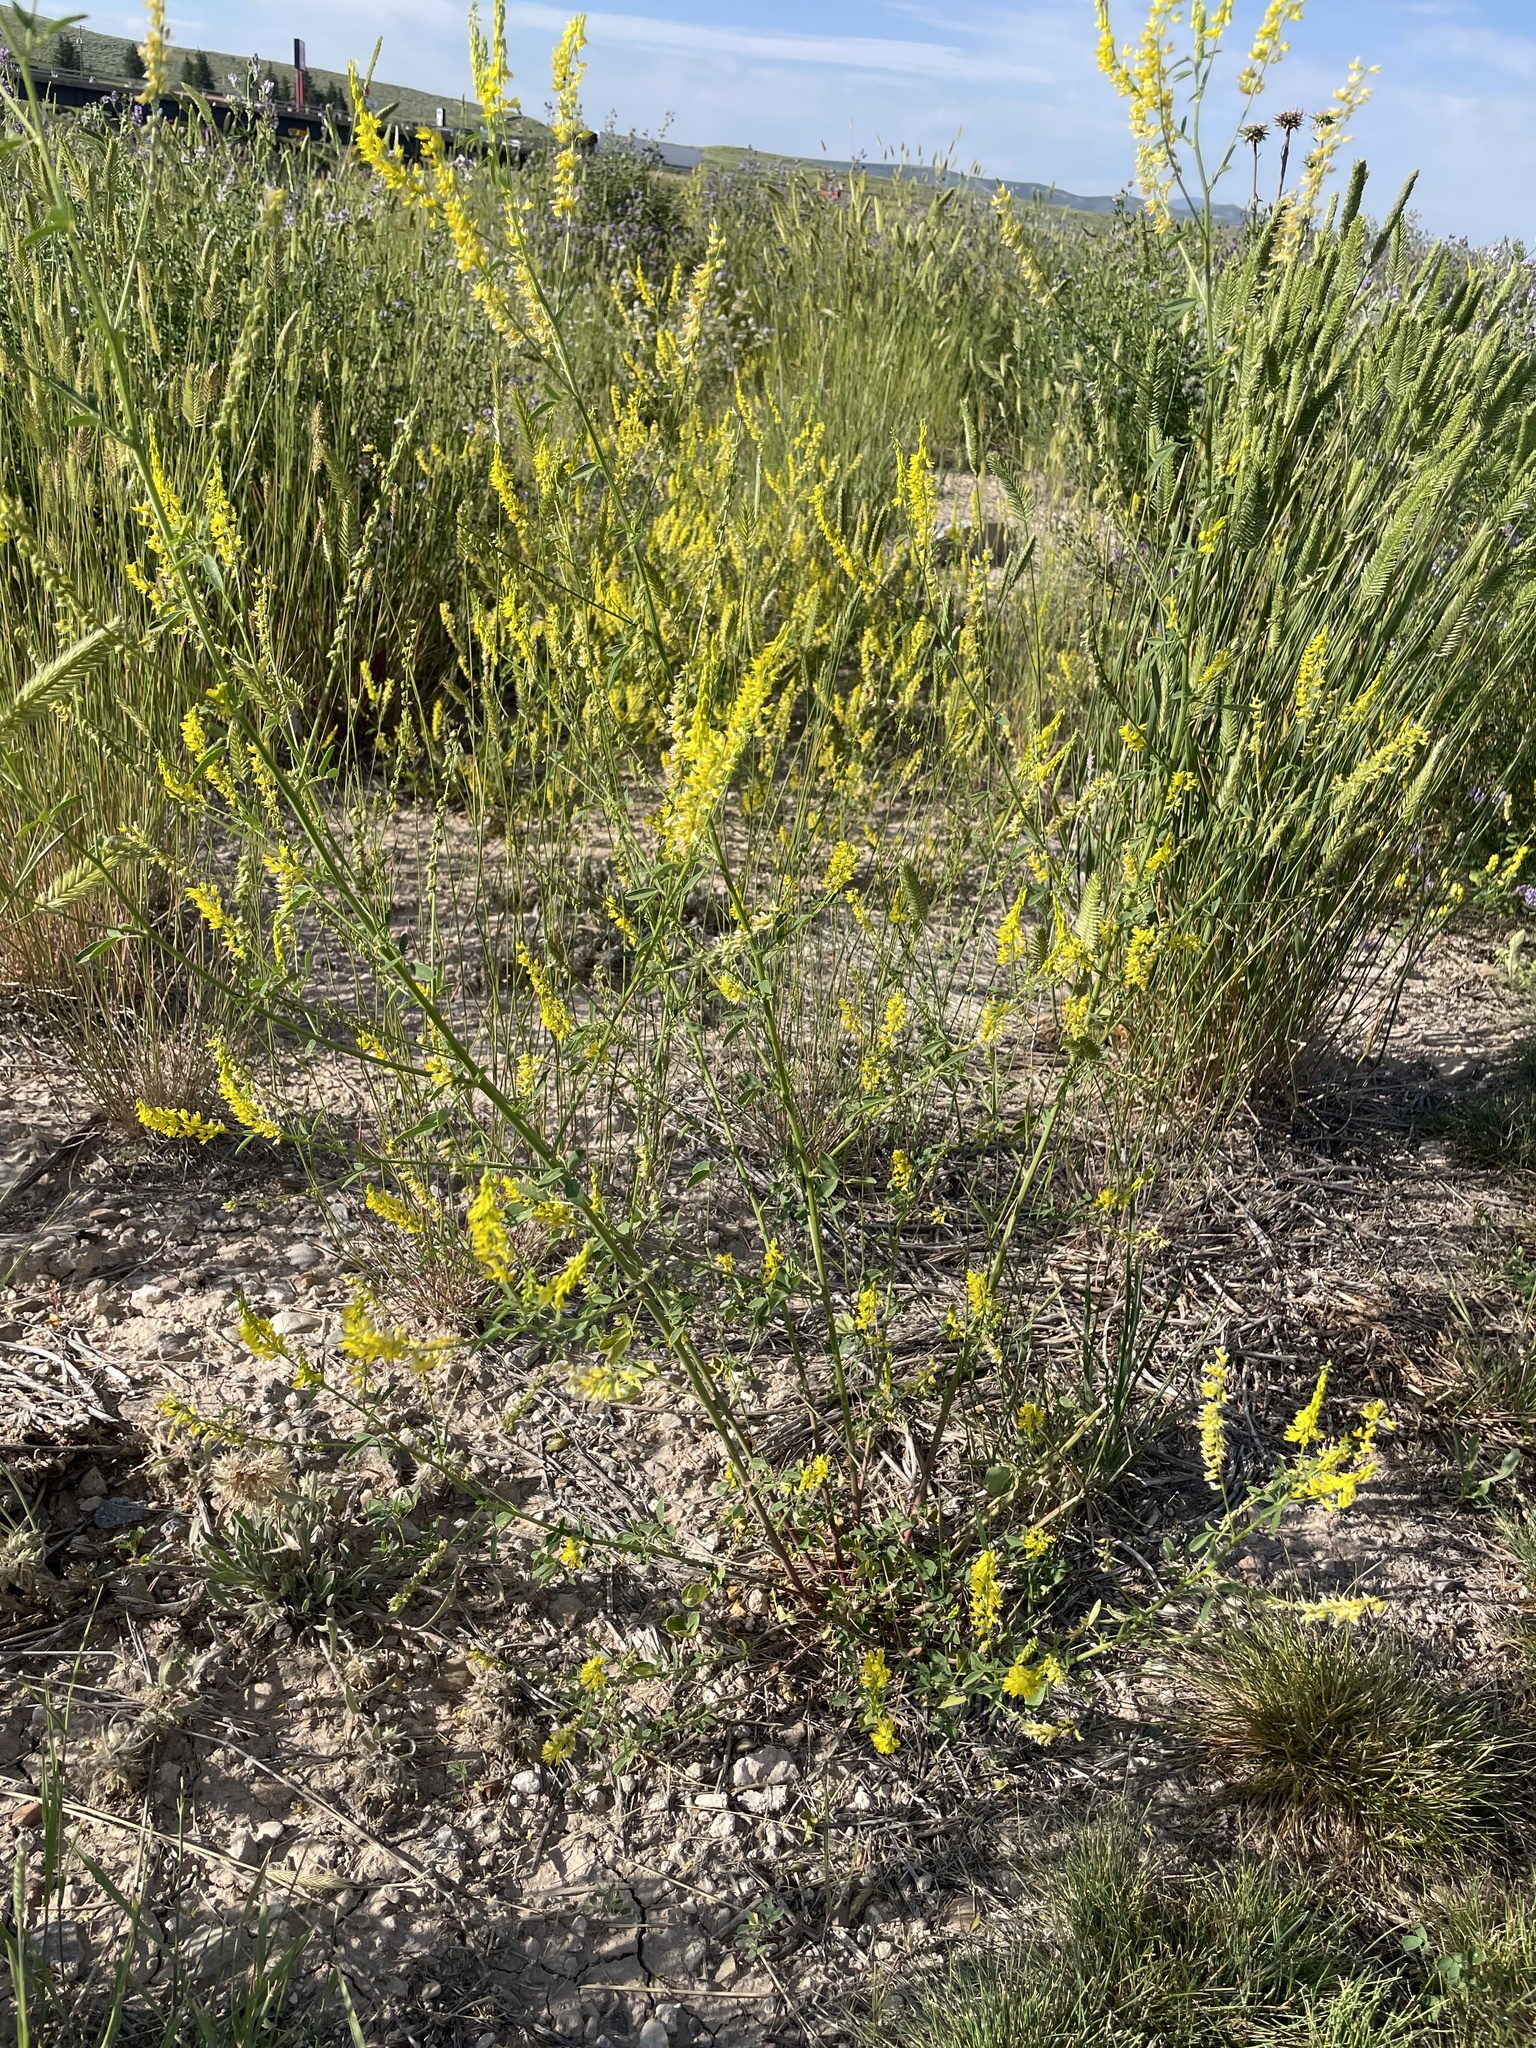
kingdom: Plantae
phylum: Tracheophyta
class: Magnoliopsida
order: Fabales
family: Fabaceae
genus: Melilotus
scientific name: Melilotus officinalis
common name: Sweetclover
